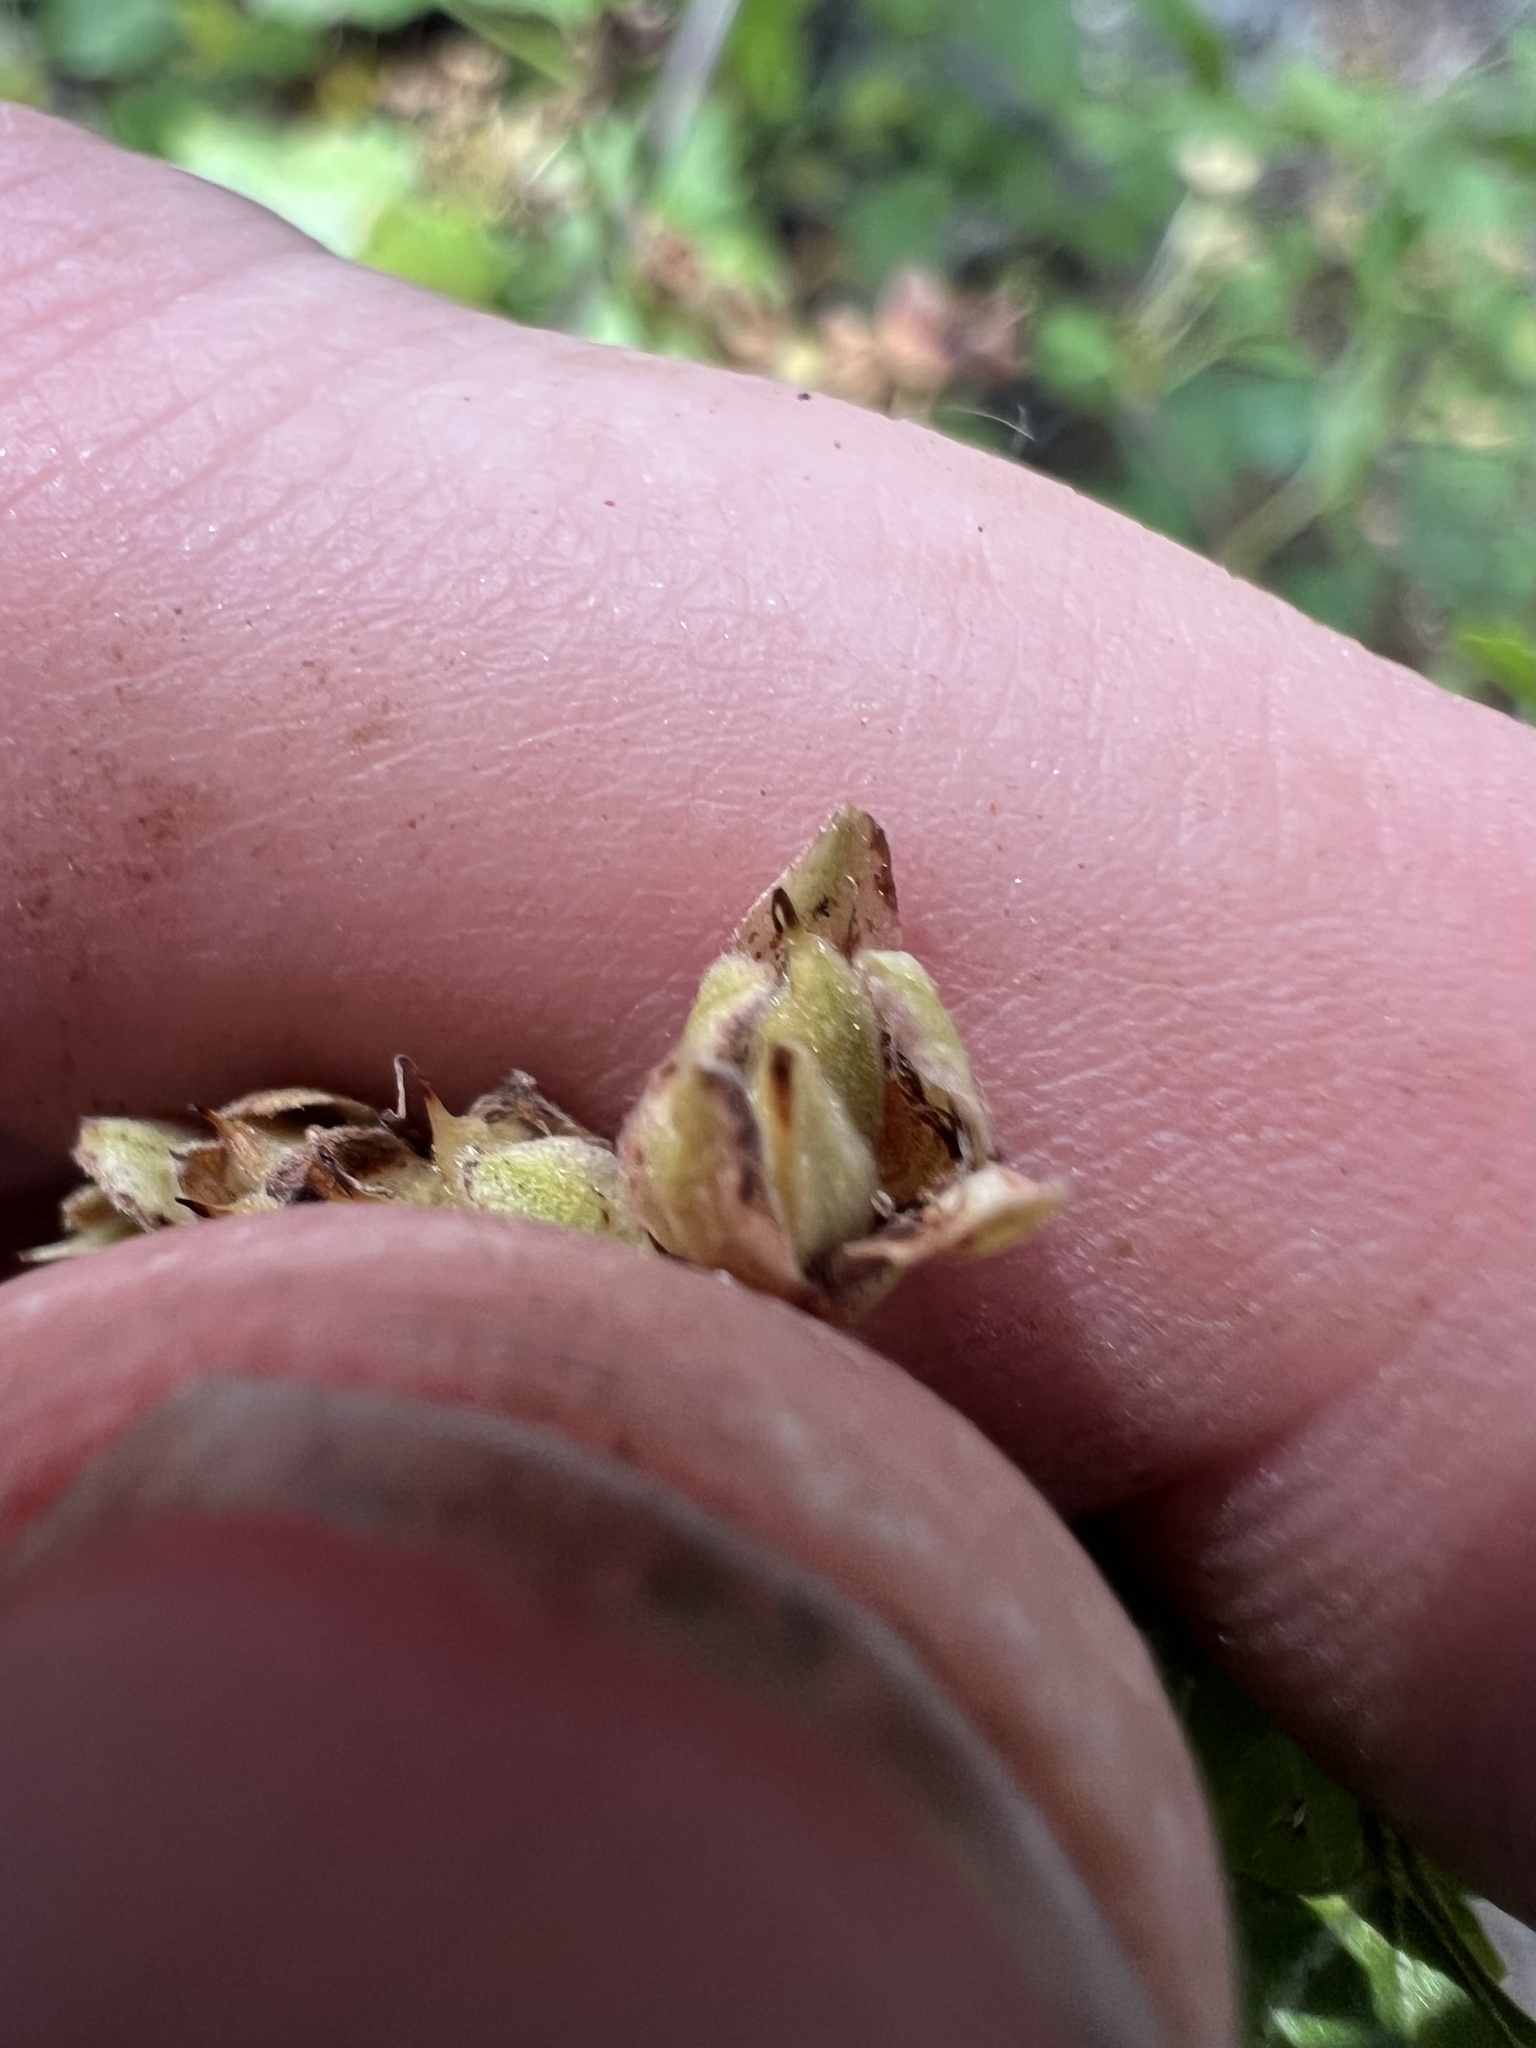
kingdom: Plantae
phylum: Tracheophyta
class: Magnoliopsida
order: Rosales
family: Rosaceae
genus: Physocarpus
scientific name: Physocarpus monogynus
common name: Mountain ninebark
